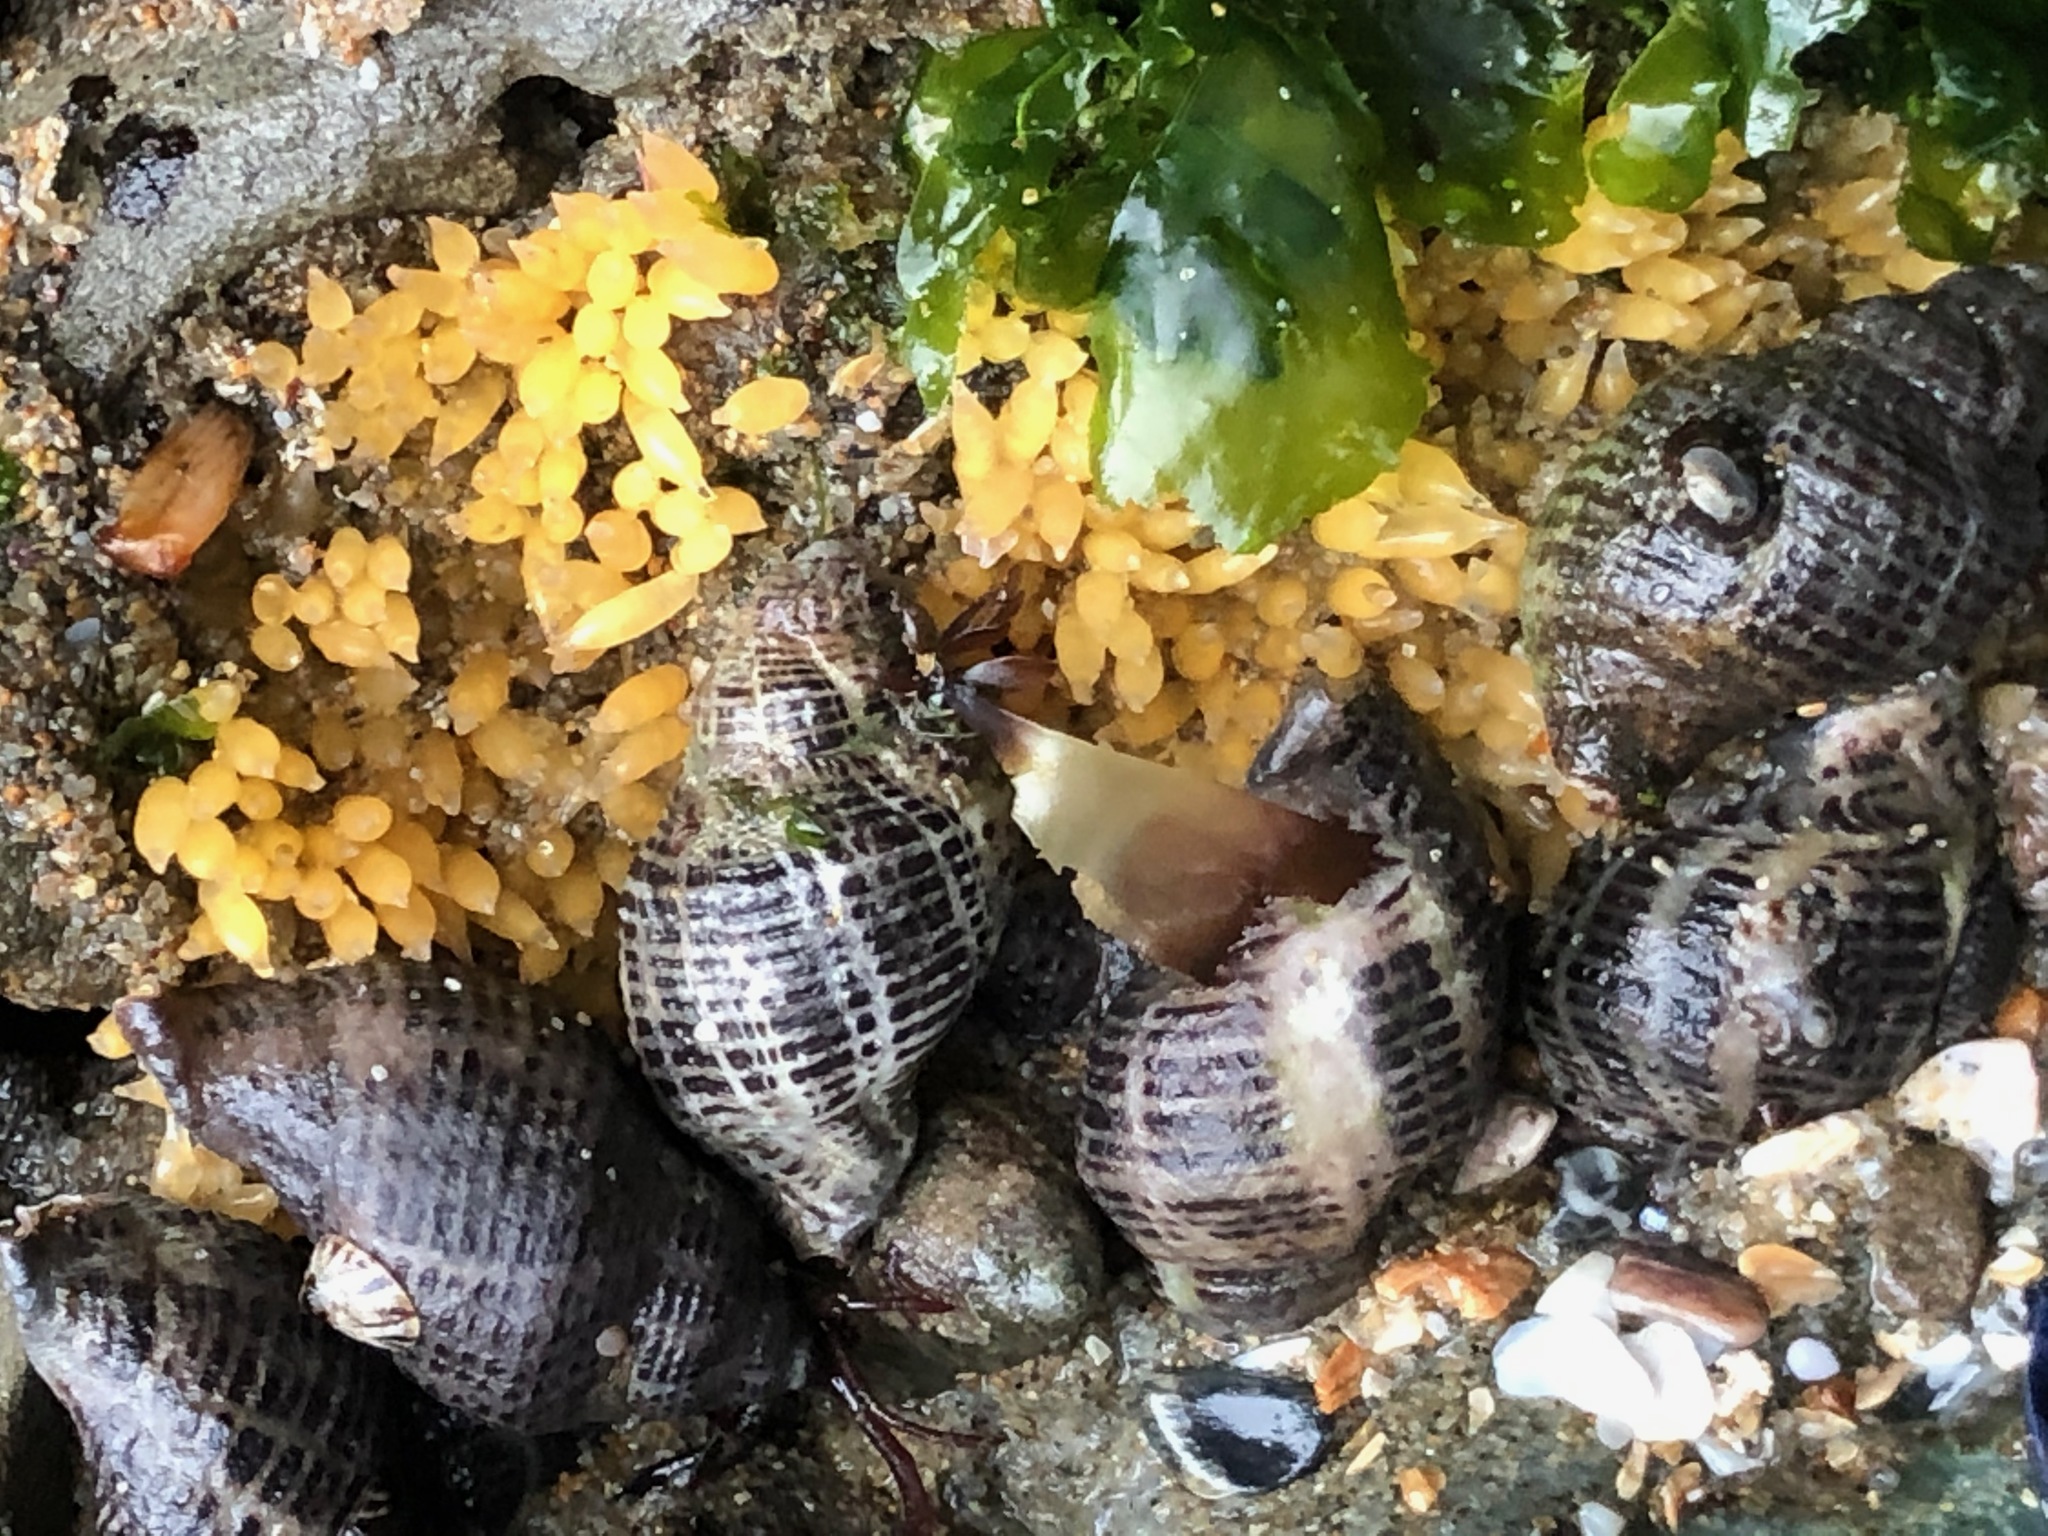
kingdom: Animalia
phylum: Mollusca
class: Gastropoda
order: Neogastropoda
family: Muricidae
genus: Acanthinucella
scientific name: Acanthinucella spirata
